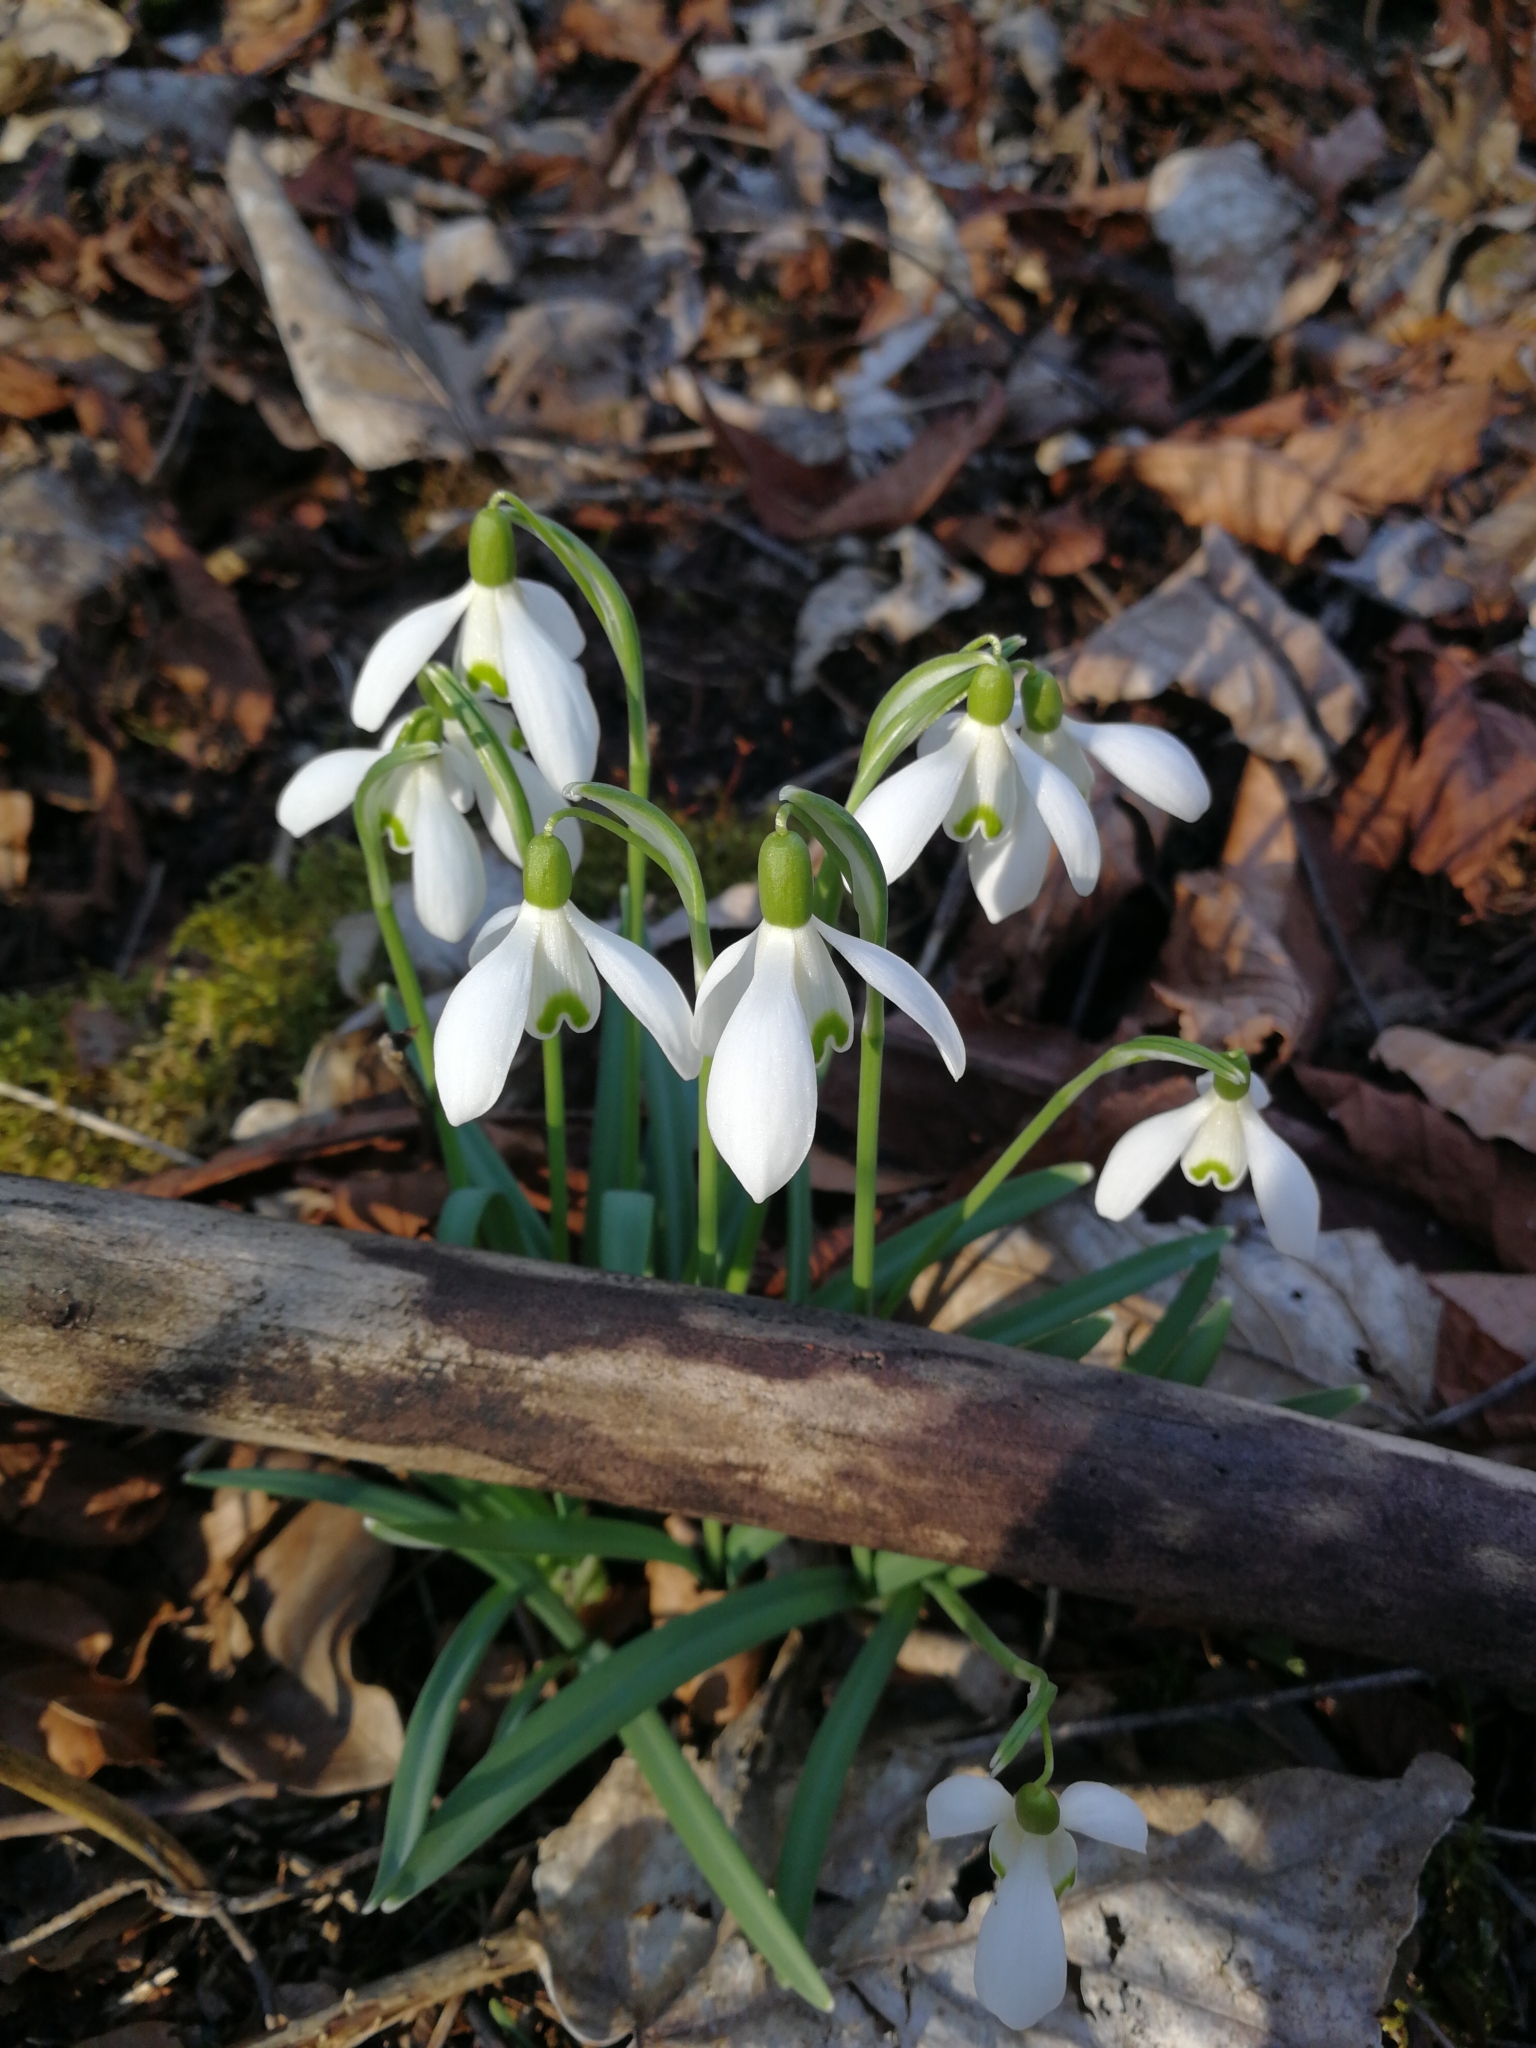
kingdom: Plantae
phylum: Tracheophyta
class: Liliopsida
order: Asparagales
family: Amaryllidaceae
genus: Galanthus
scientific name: Galanthus nivalis
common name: Snowdrop
